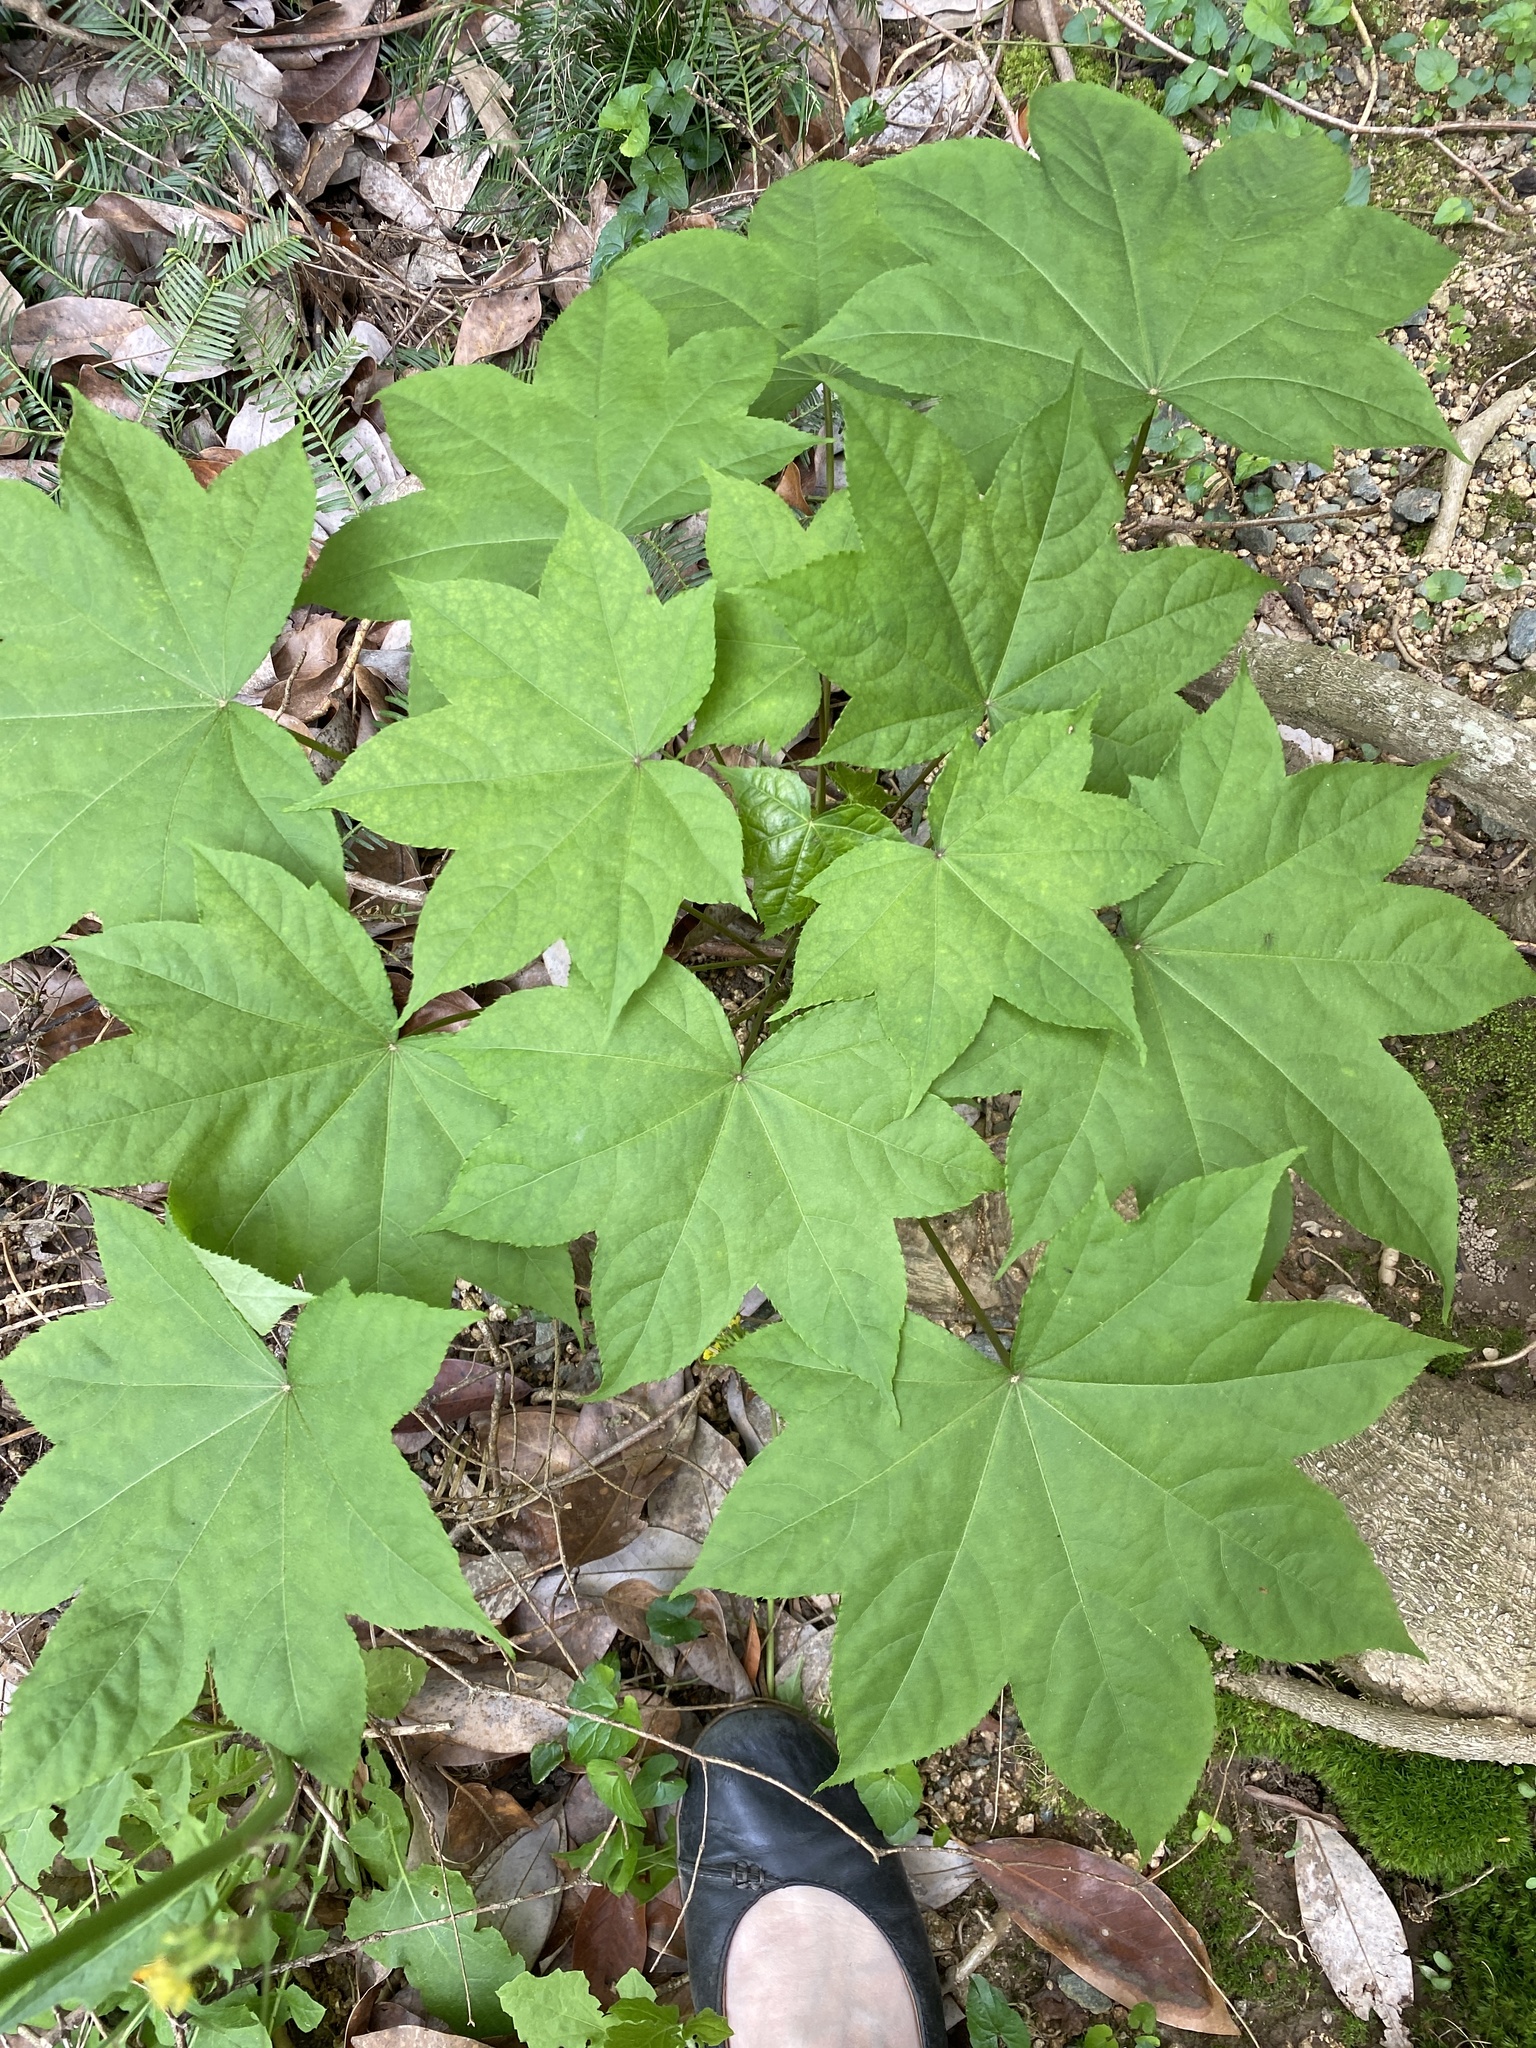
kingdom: Plantae
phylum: Tracheophyta
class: Magnoliopsida
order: Apiales
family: Araliaceae
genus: Kalopanax
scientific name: Kalopanax septemlobus
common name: Castor aralia
